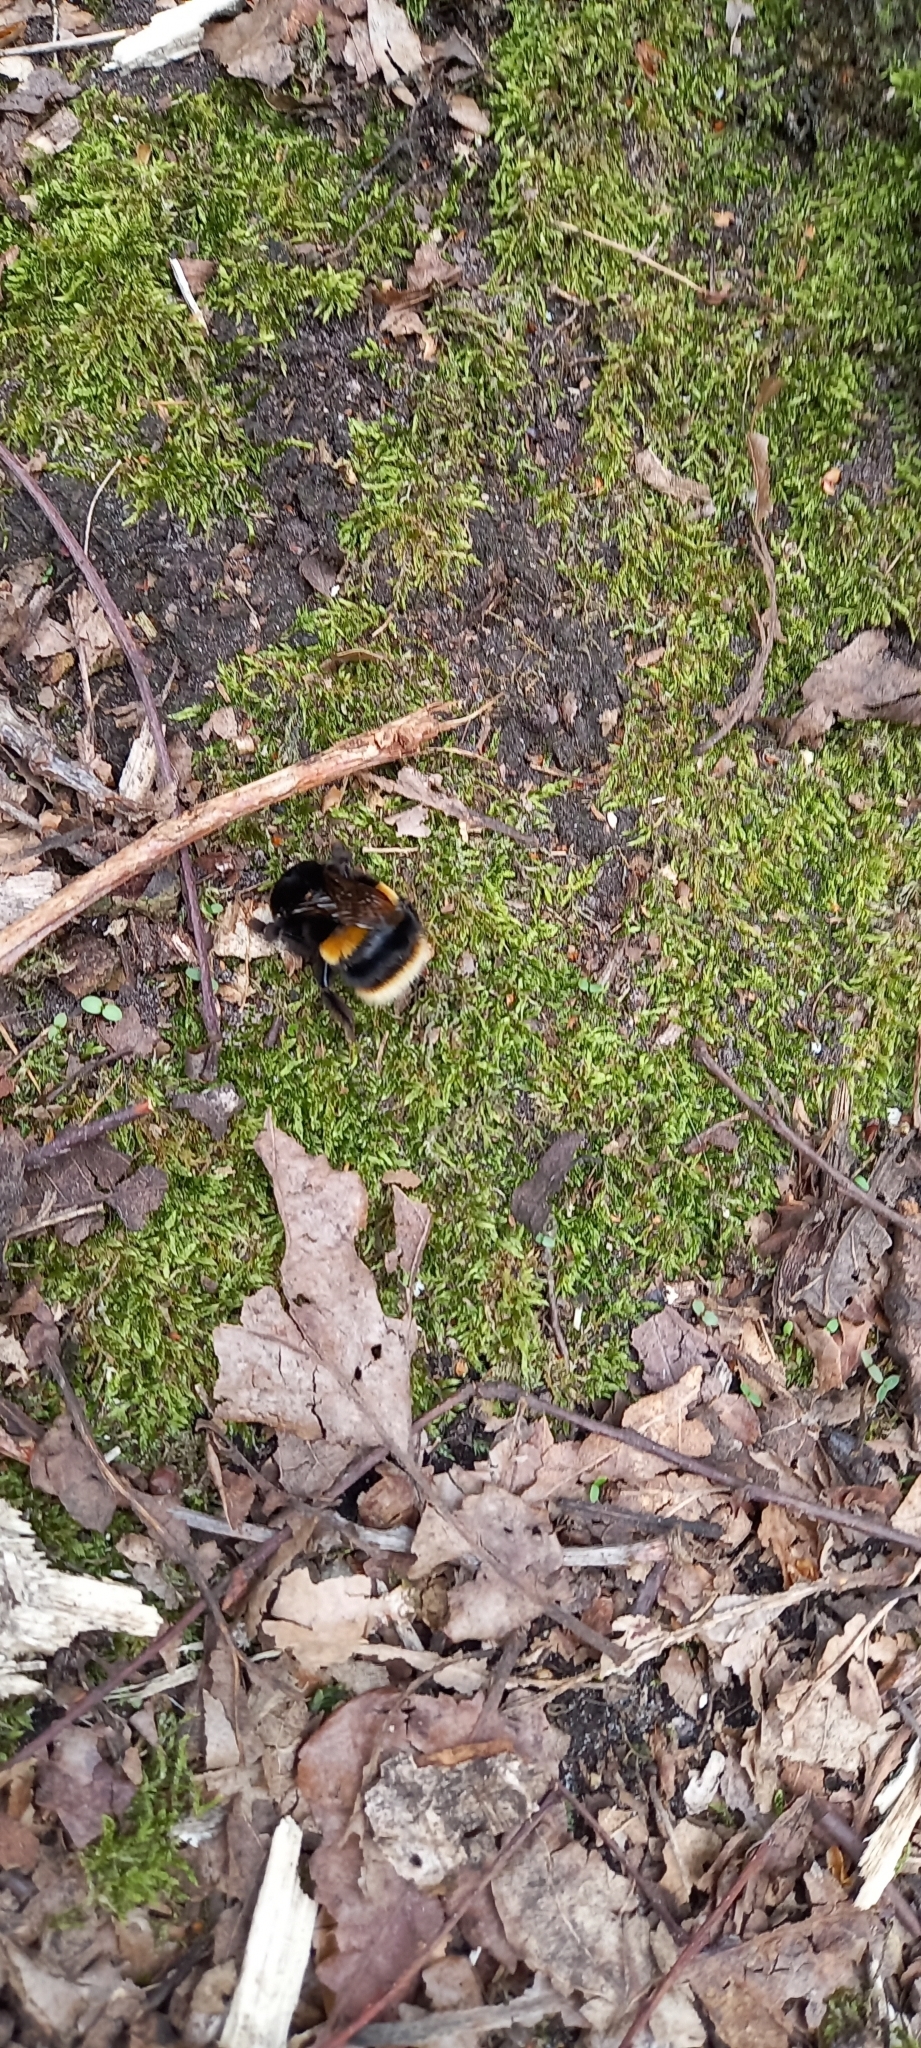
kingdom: Animalia
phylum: Arthropoda
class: Insecta
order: Hymenoptera
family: Apidae
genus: Bombus
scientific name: Bombus terrestris
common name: Buff-tailed bumblebee
